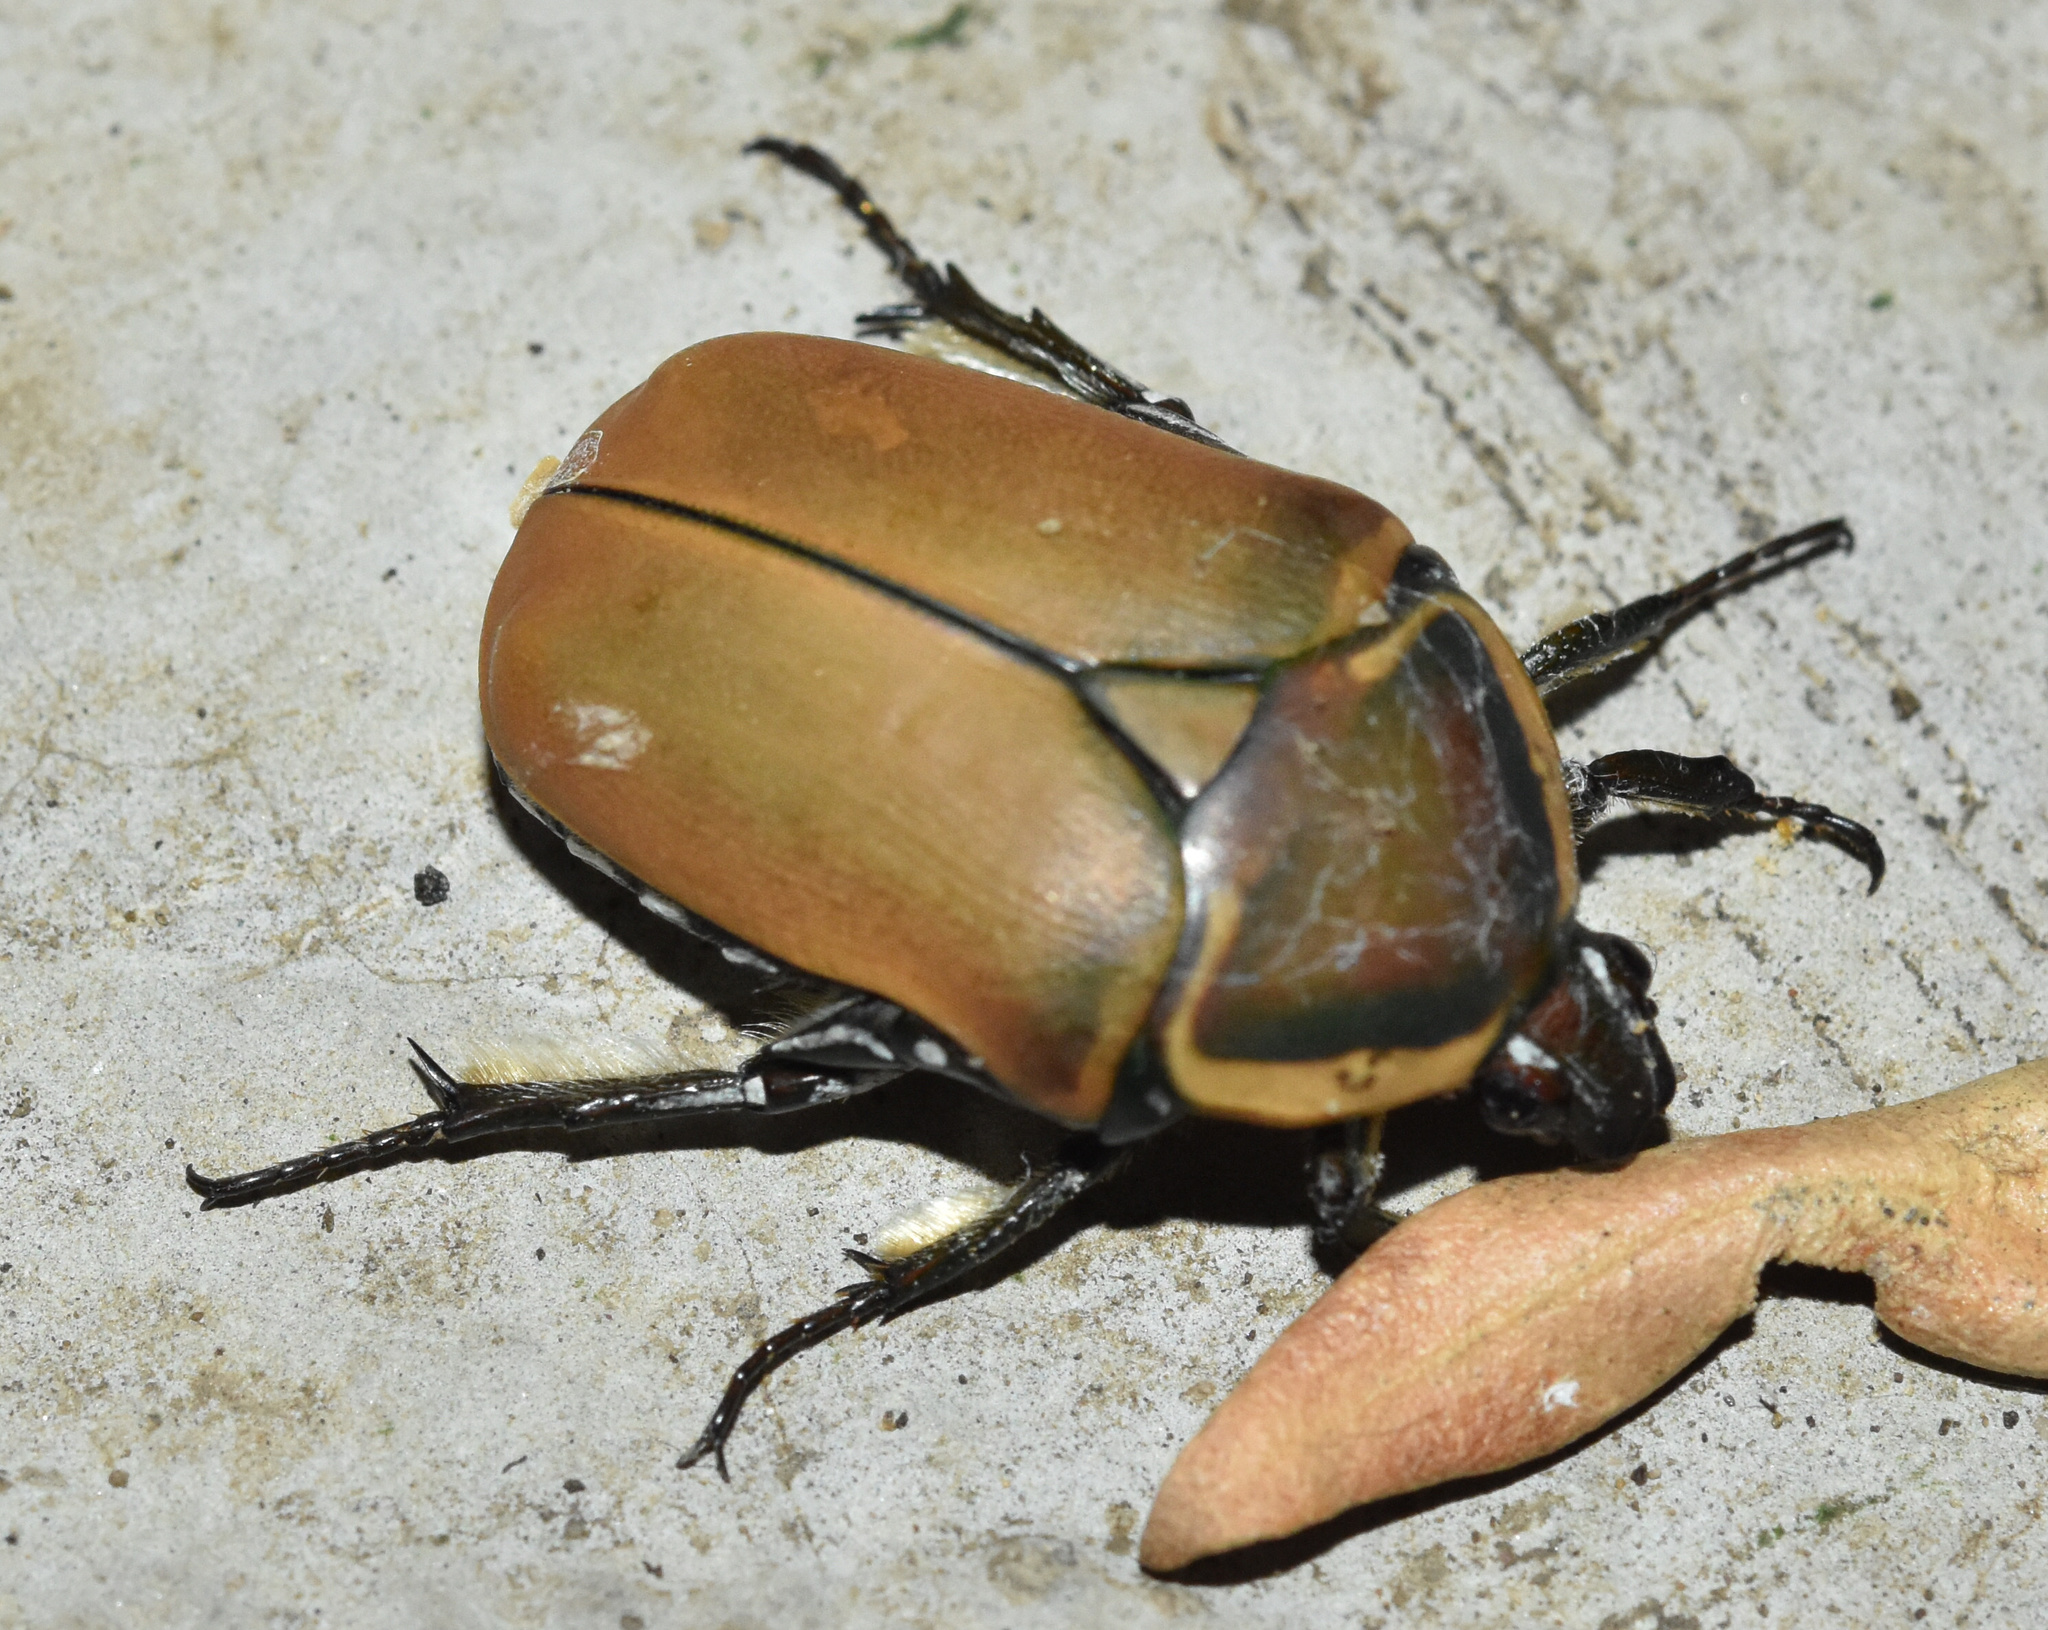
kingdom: Animalia
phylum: Arthropoda
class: Insecta
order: Coleoptera
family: Scarabaeidae
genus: Dischista
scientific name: Dischista cincta
